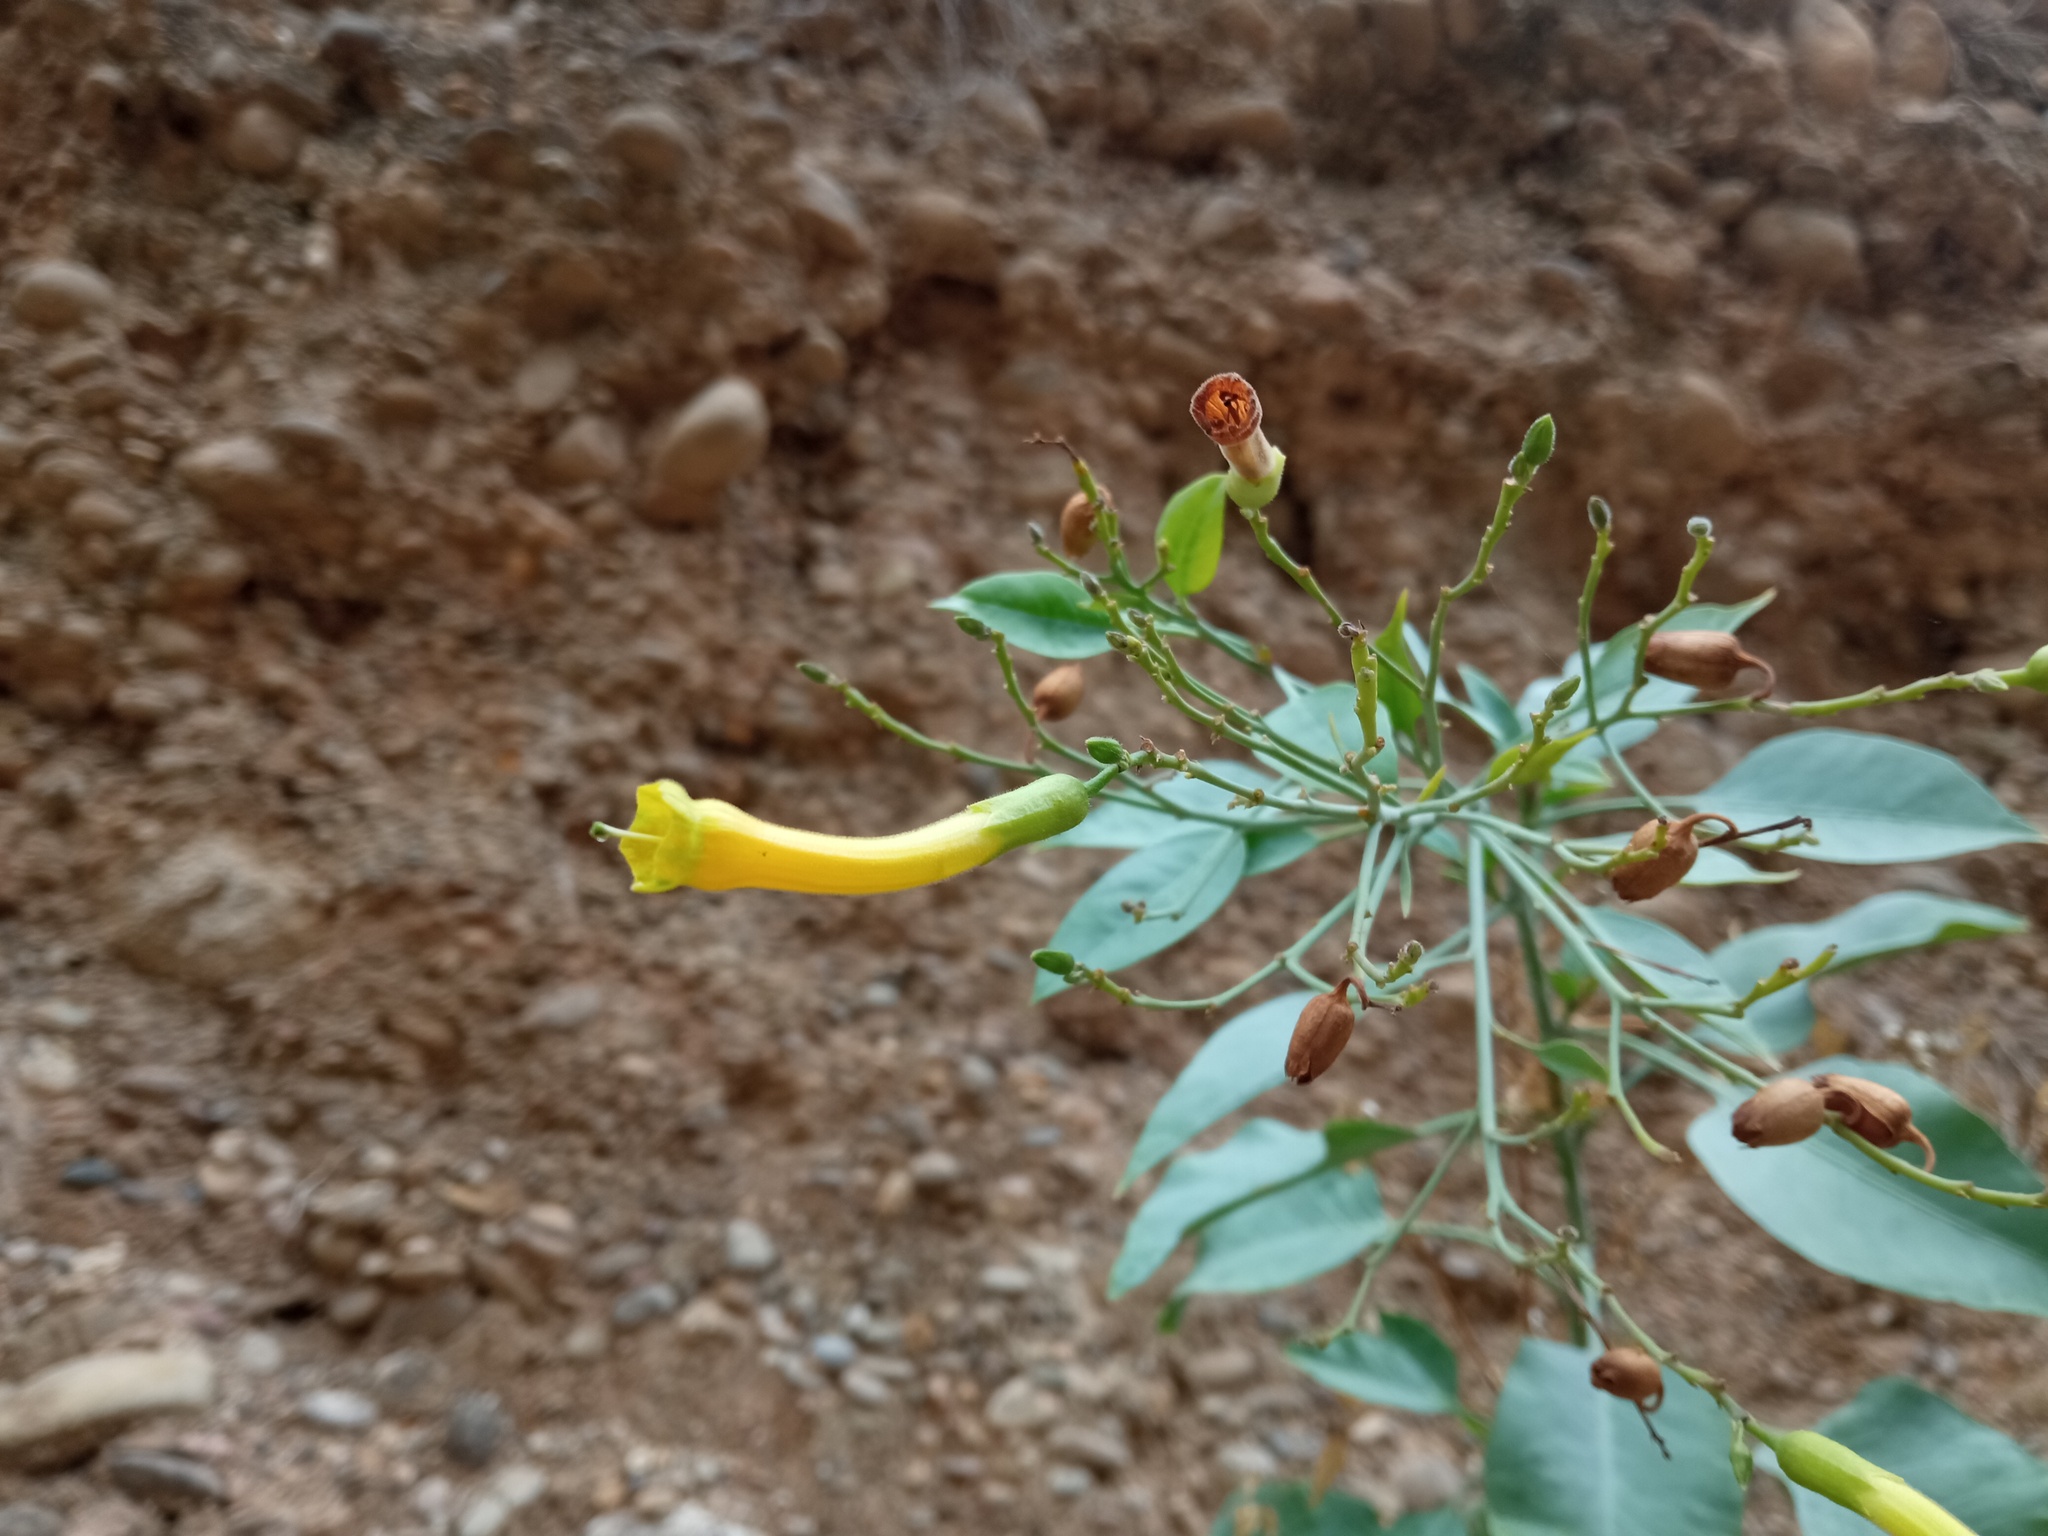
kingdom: Plantae
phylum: Tracheophyta
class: Magnoliopsida
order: Solanales
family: Solanaceae
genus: Nicotiana
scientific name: Nicotiana glauca
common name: Tree tobacco
